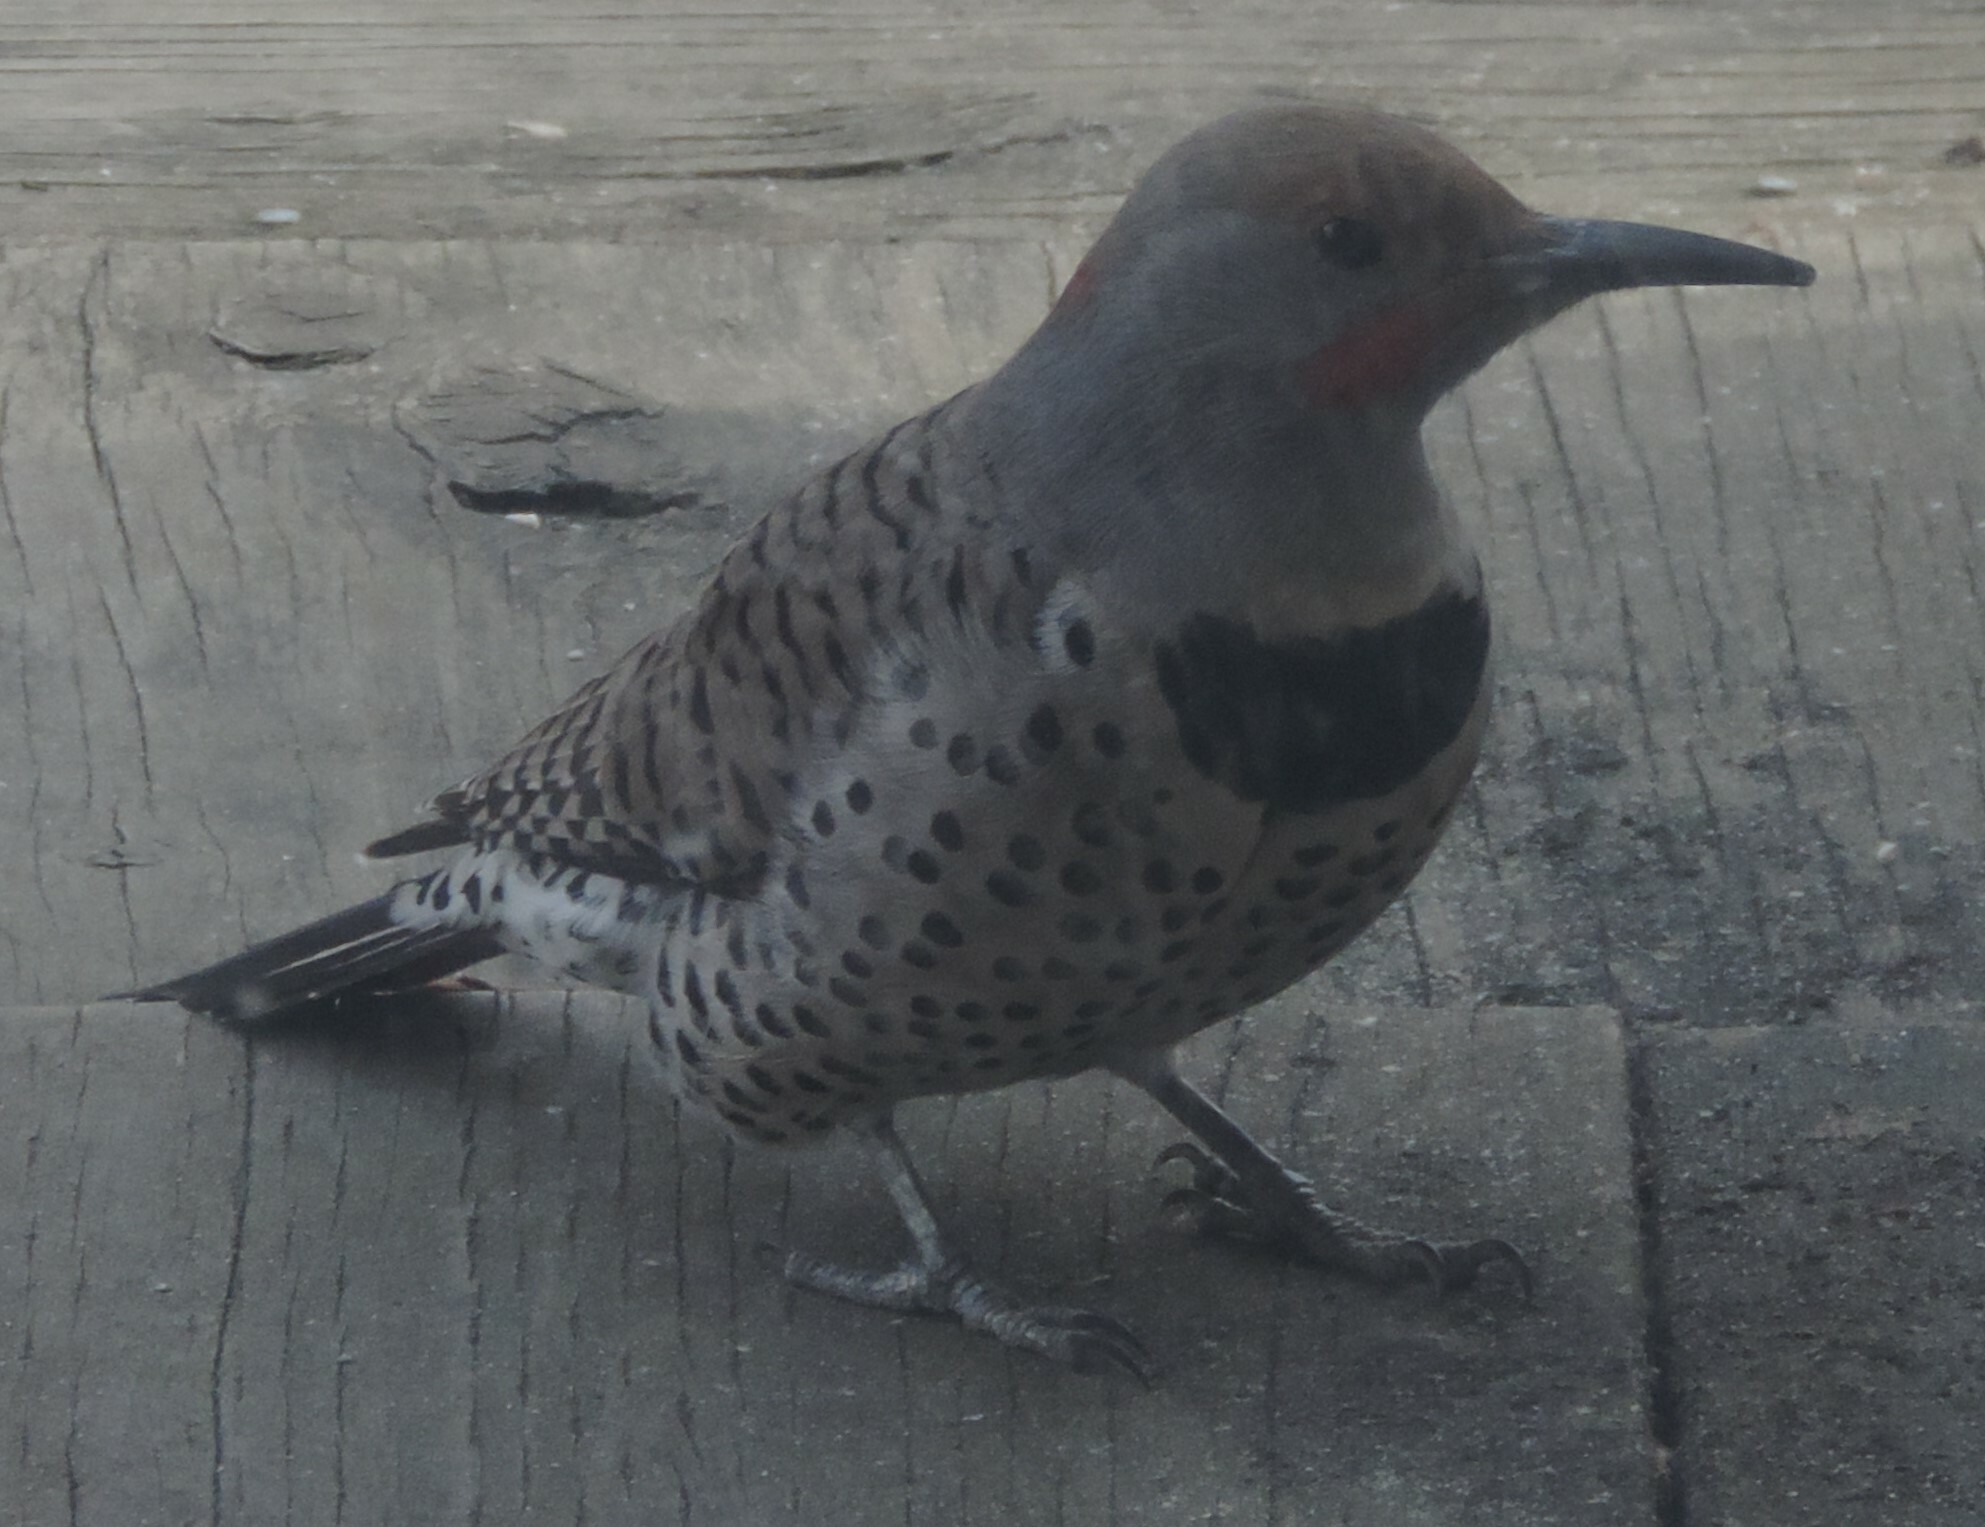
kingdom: Animalia
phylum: Chordata
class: Aves
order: Piciformes
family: Picidae
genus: Colaptes
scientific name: Colaptes
